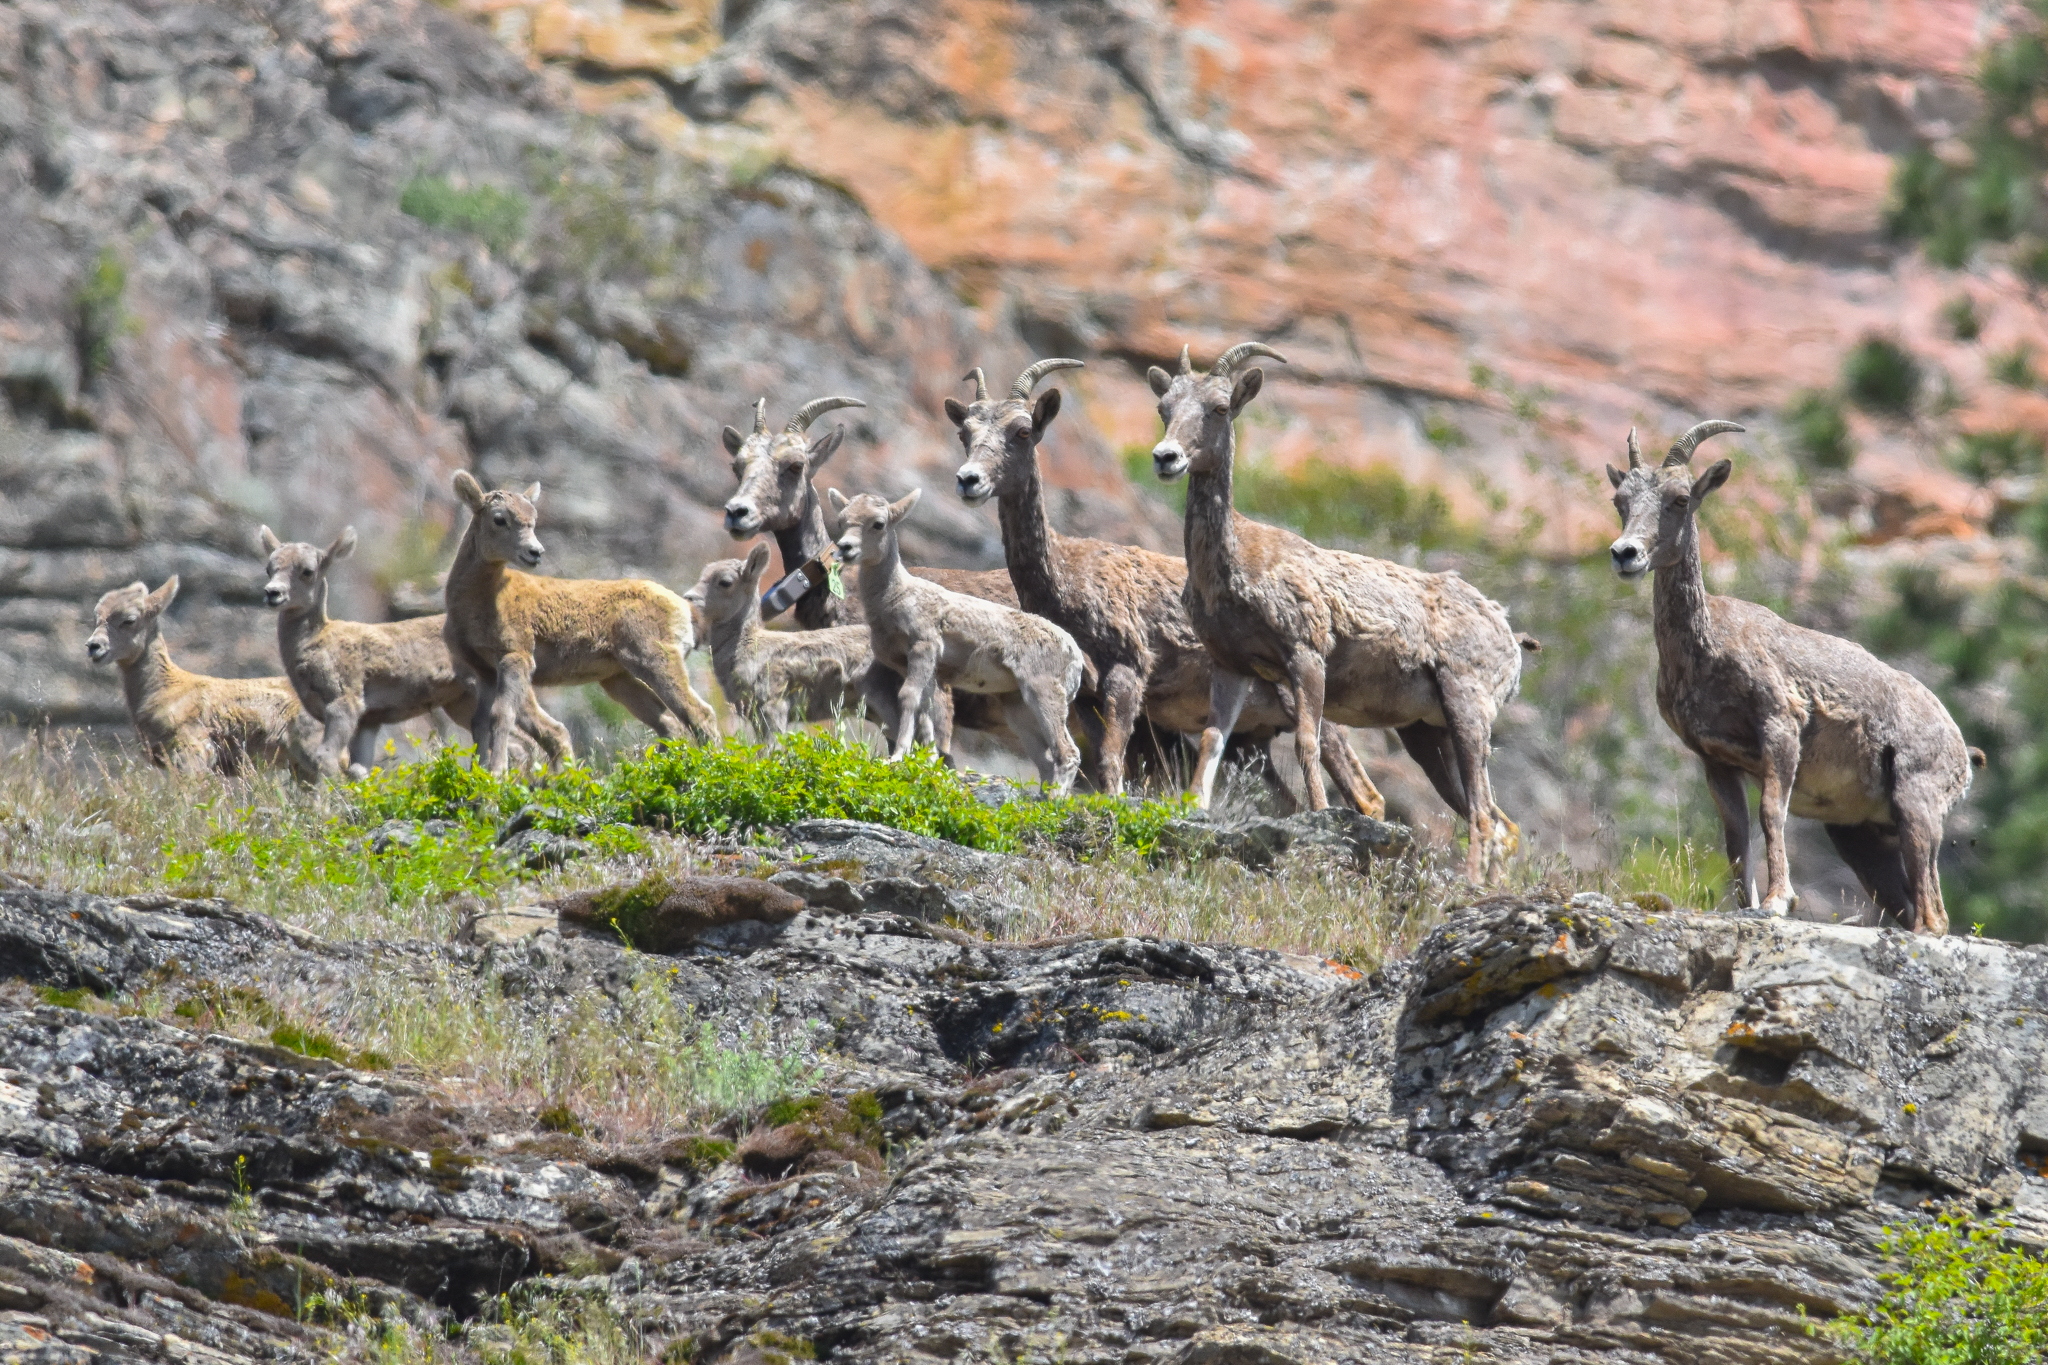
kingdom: Animalia
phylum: Chordata
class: Mammalia
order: Artiodactyla
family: Bovidae
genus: Ovis
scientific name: Ovis canadensis
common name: Bighorn sheep
